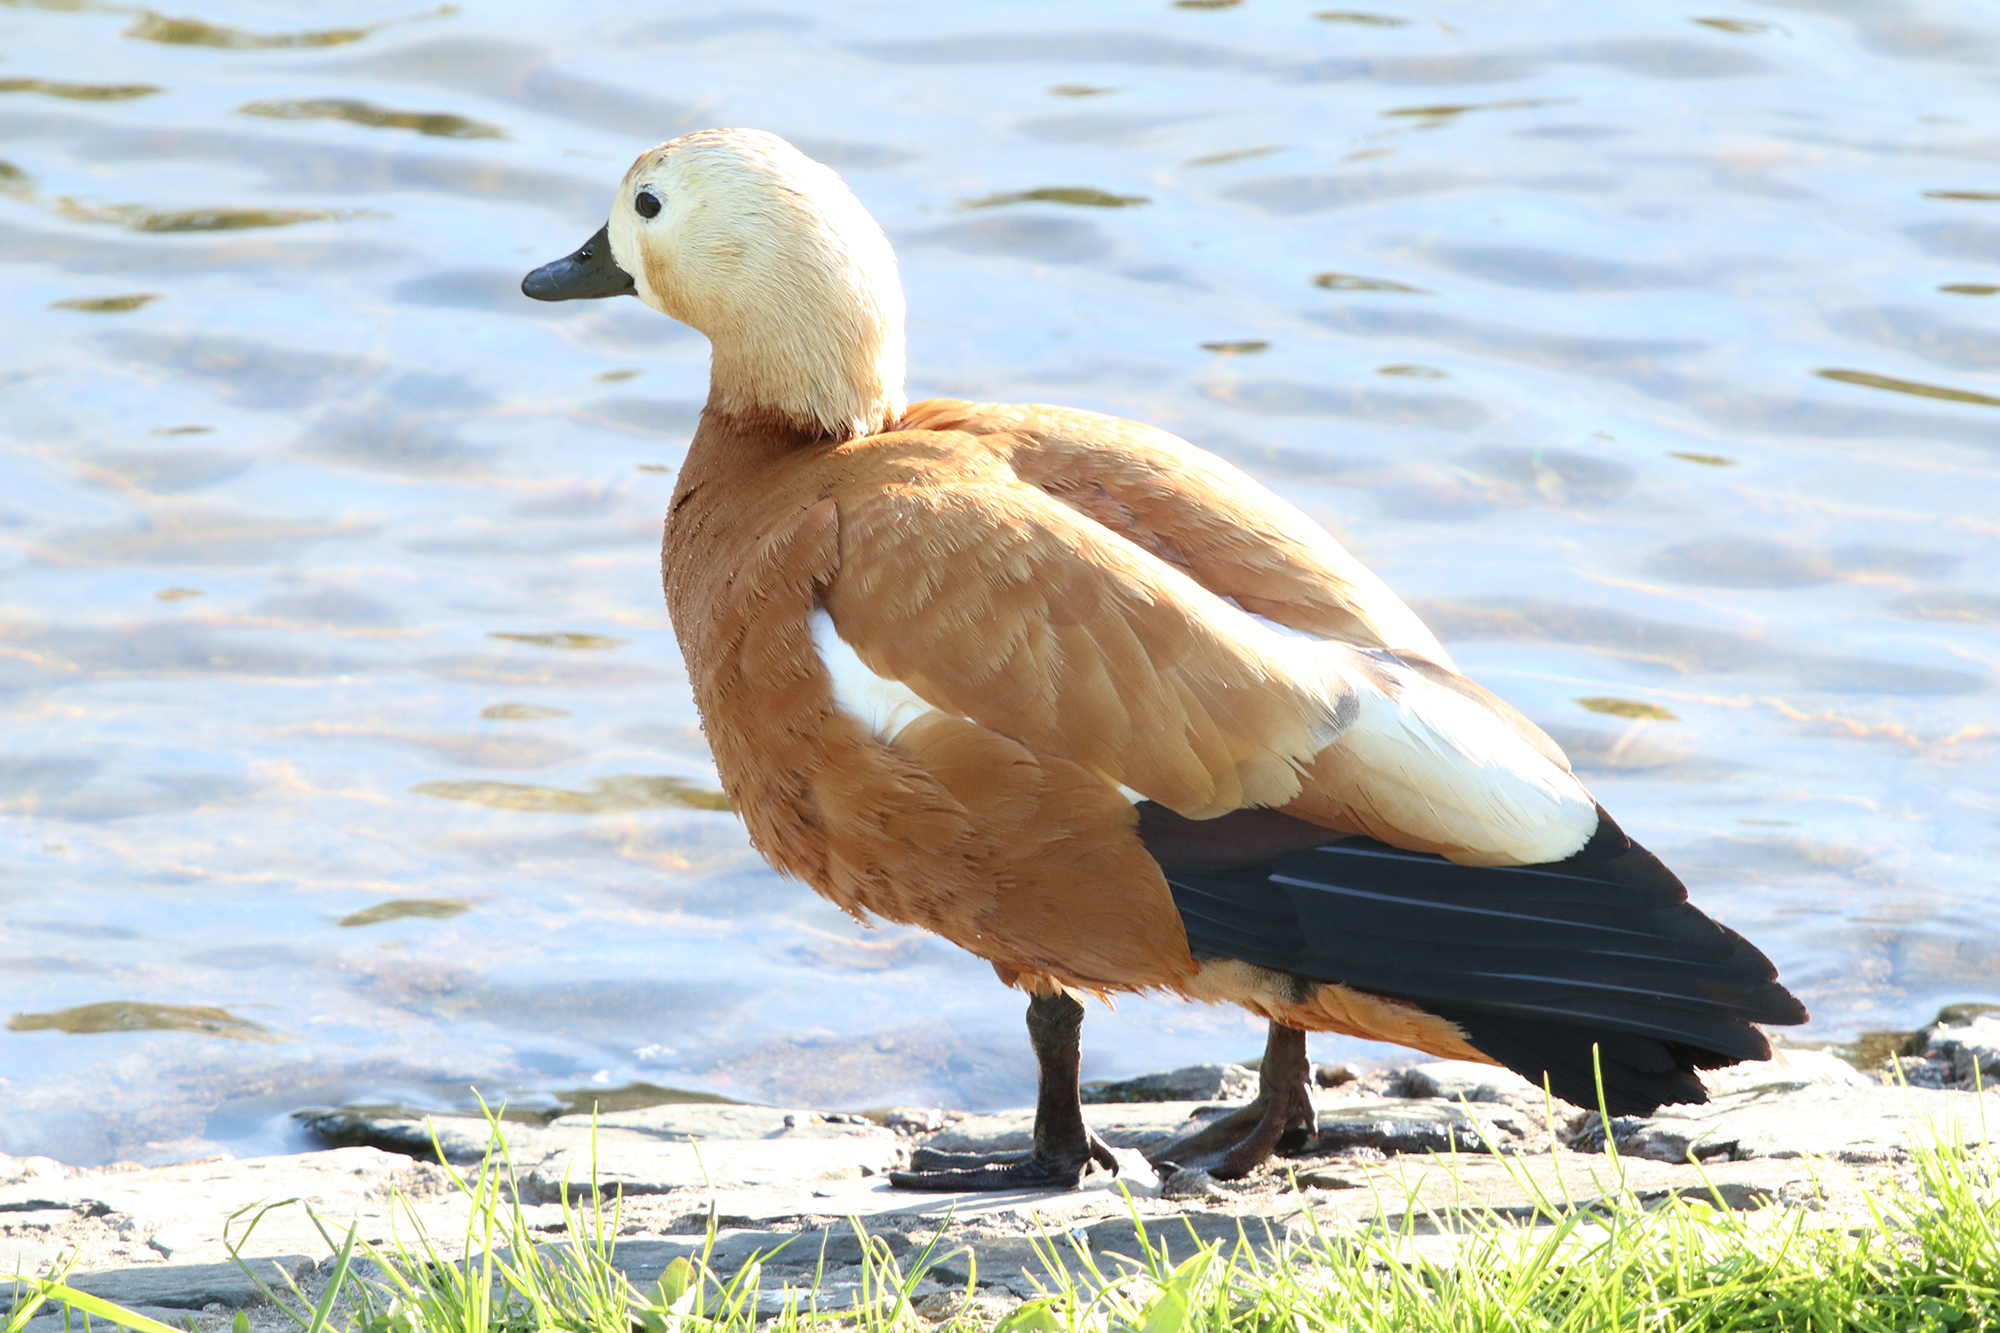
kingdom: Animalia
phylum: Chordata
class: Aves
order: Anseriformes
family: Anatidae
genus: Tadorna
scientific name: Tadorna ferruginea
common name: Ruddy shelduck
